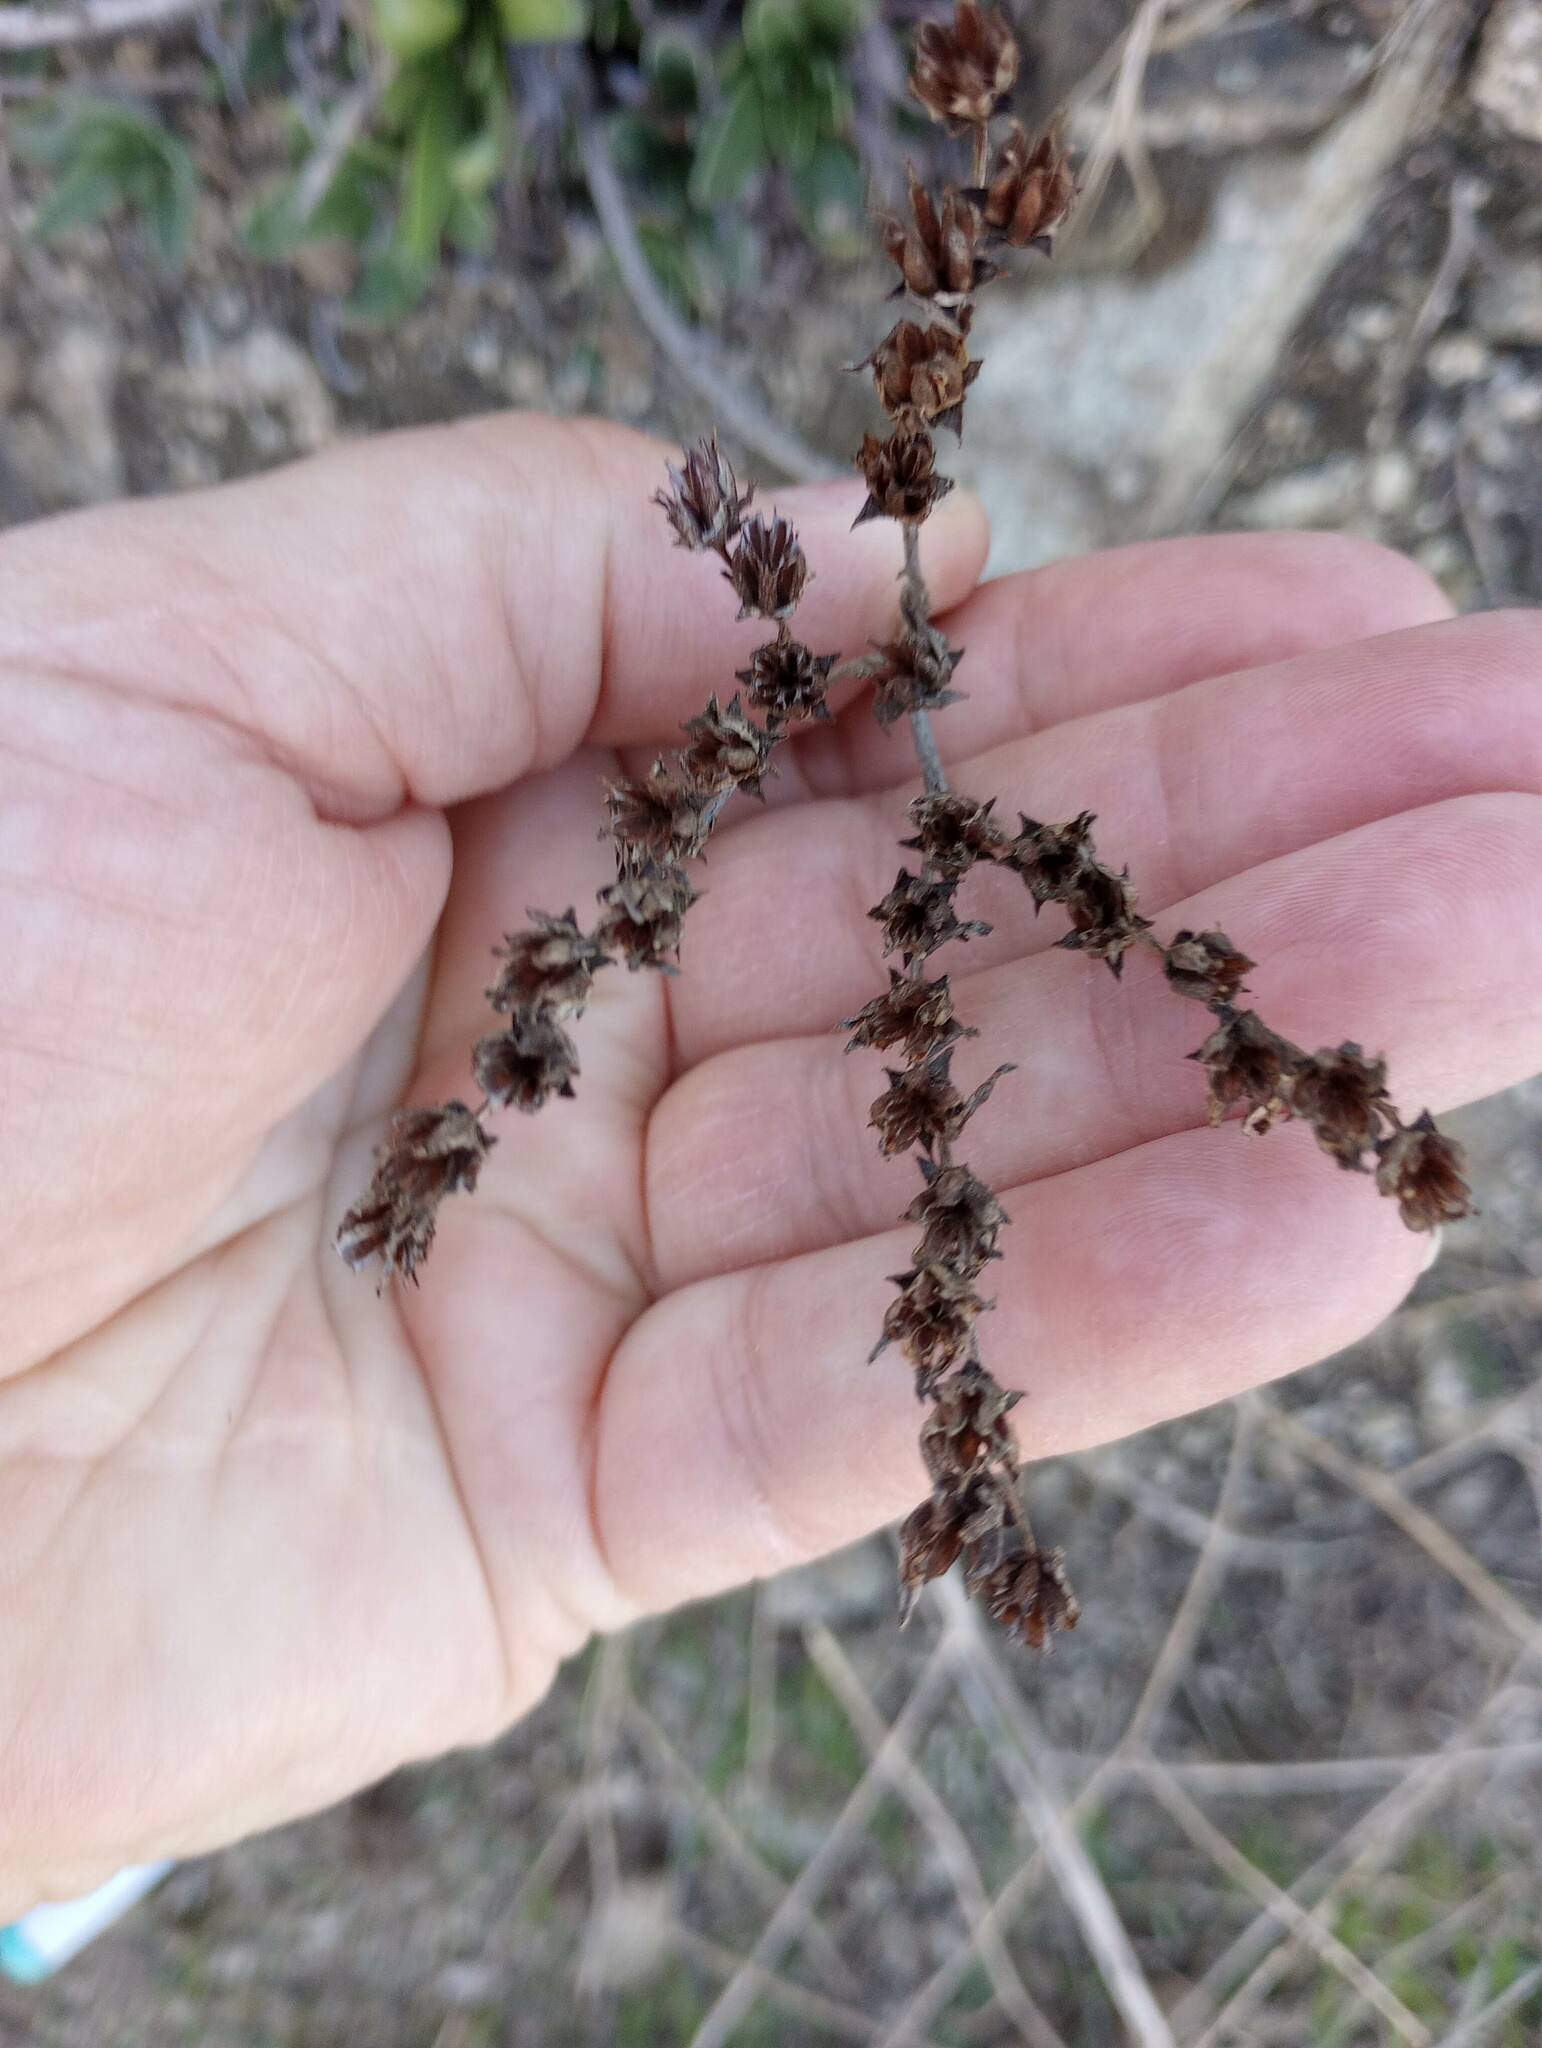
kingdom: Plantae
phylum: Tracheophyta
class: Magnoliopsida
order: Saxifragales
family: Crassulaceae
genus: Dudleya
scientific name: Dudleya lanceolata
